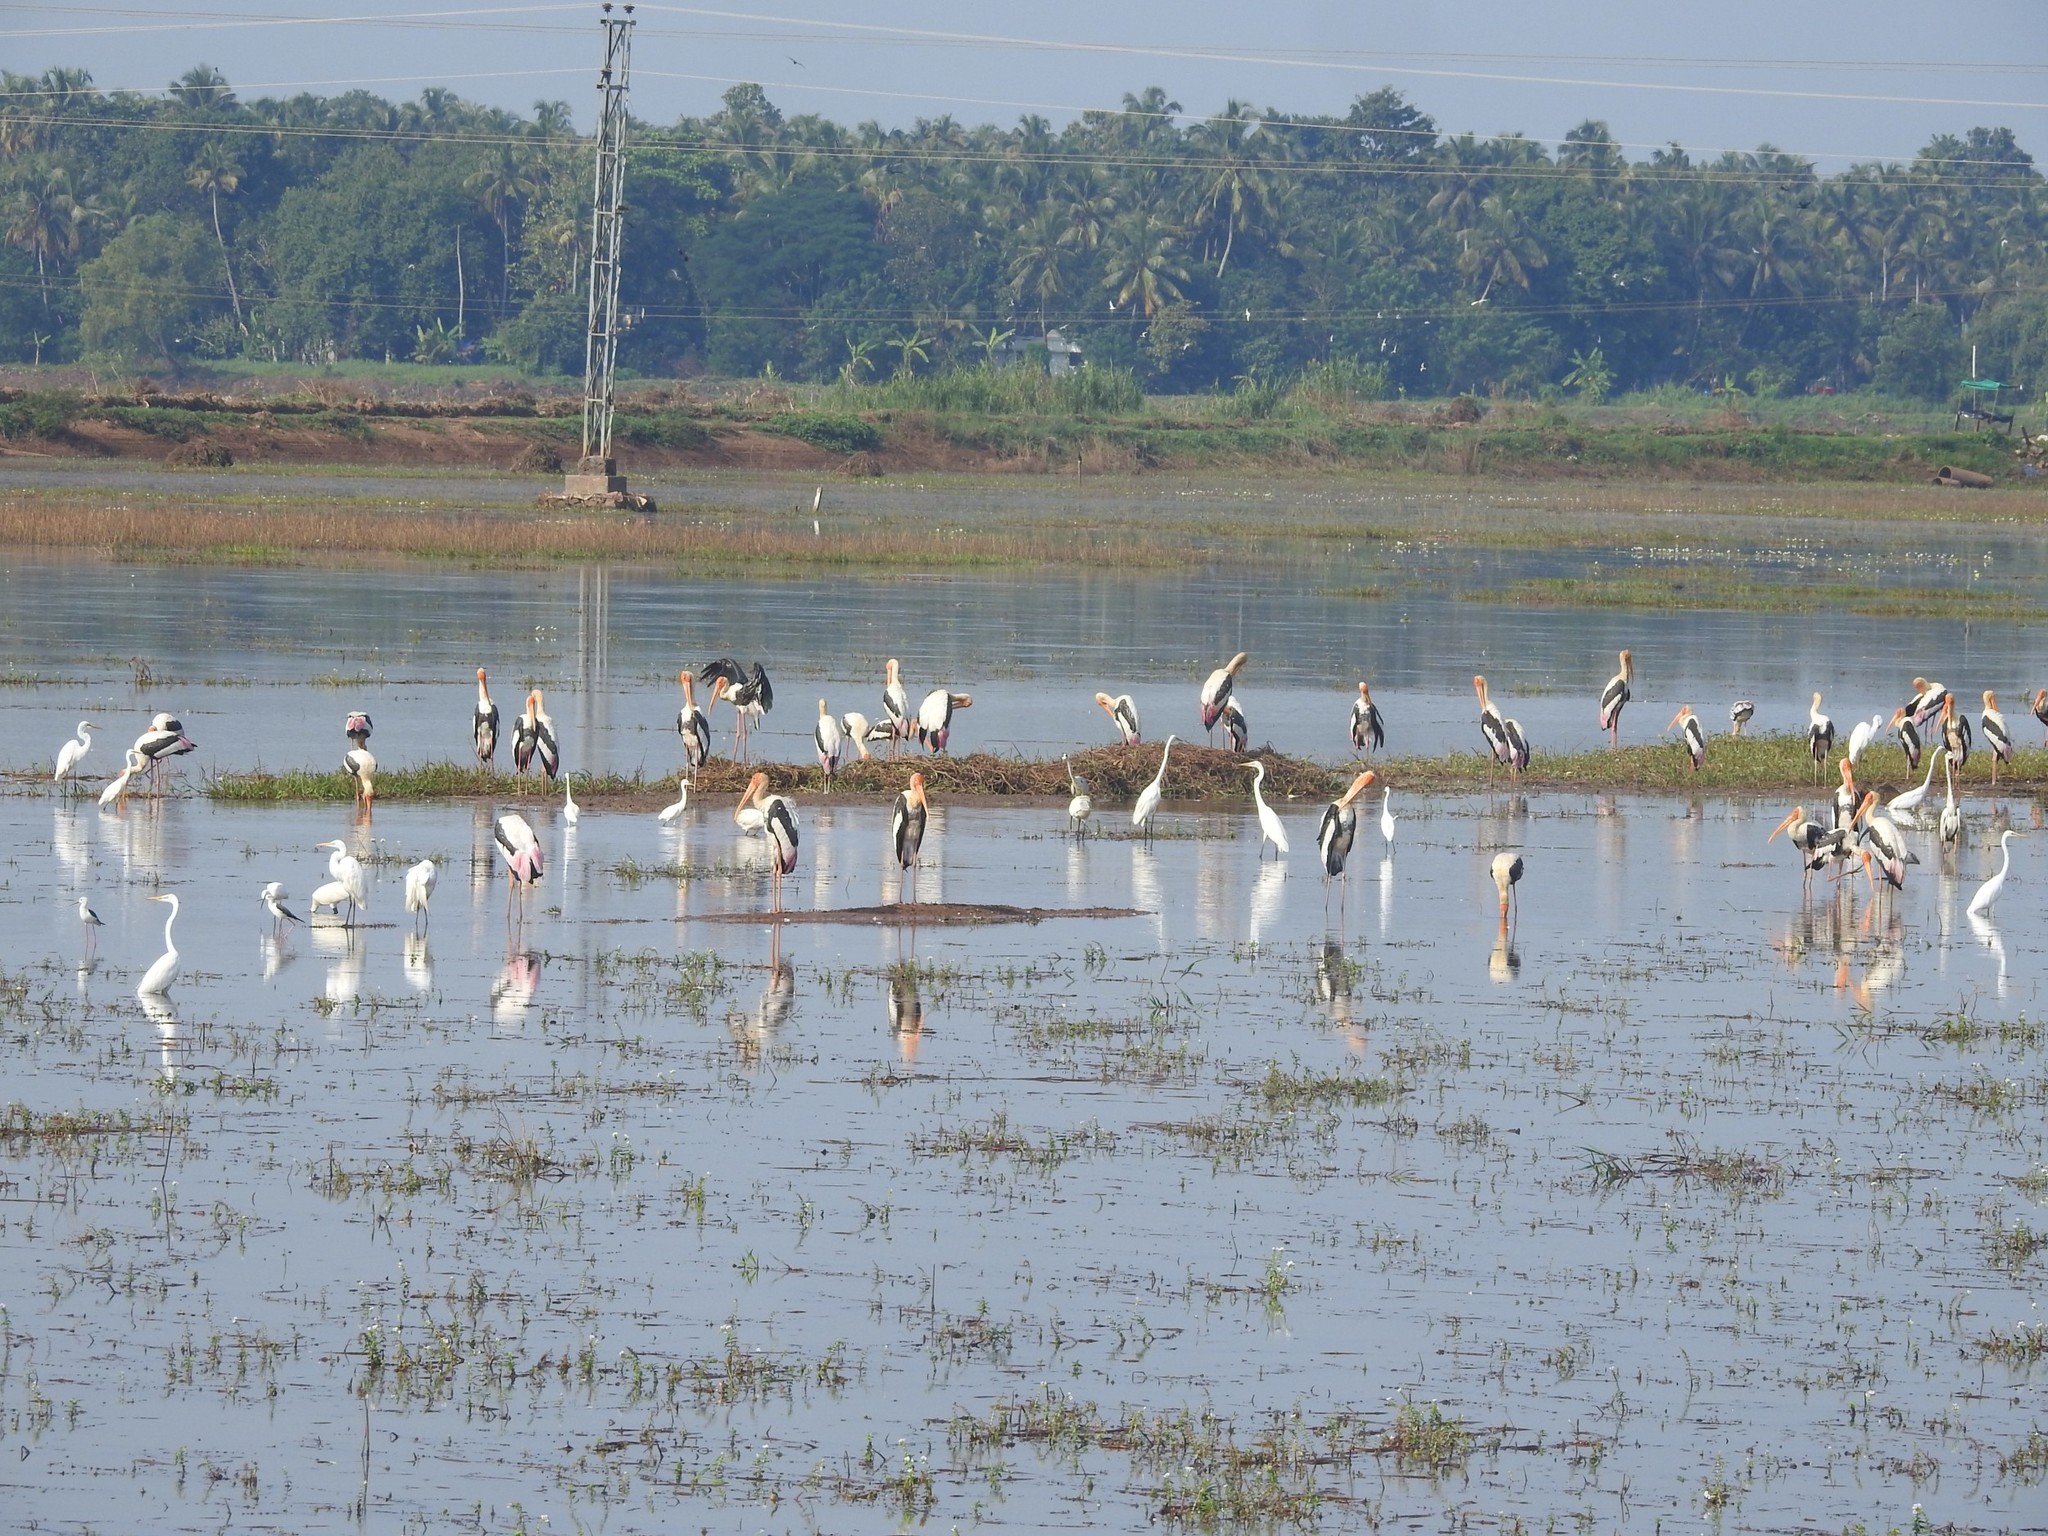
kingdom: Animalia
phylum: Chordata
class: Aves
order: Ciconiiformes
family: Ciconiidae
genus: Mycteria
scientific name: Mycteria leucocephala
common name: Painted stork
